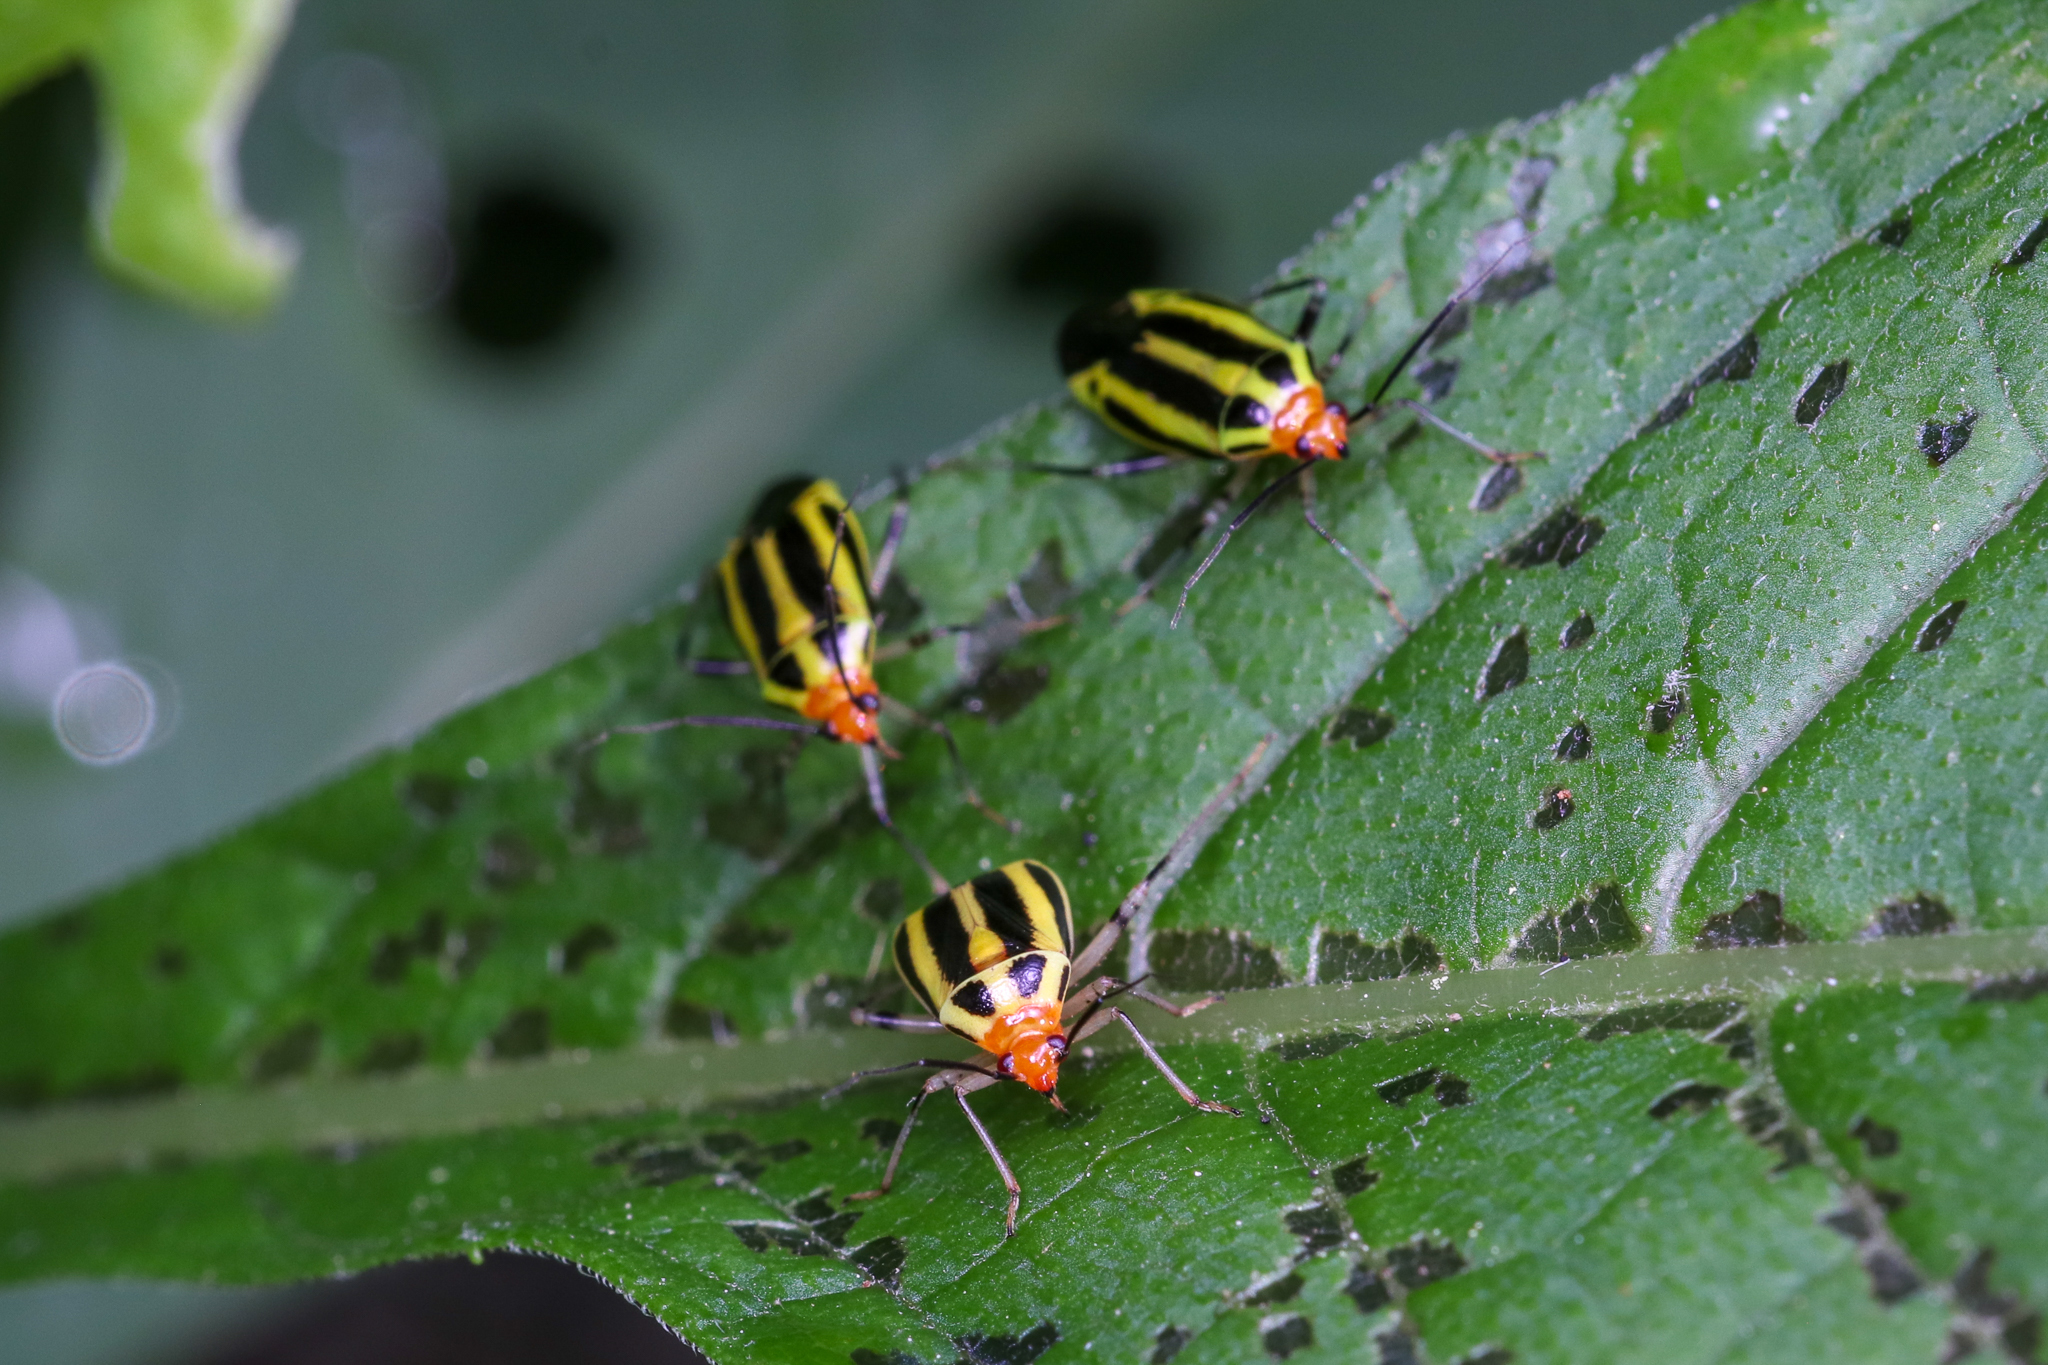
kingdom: Animalia
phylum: Arthropoda
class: Insecta
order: Hemiptera
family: Miridae
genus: Poecilocapsus
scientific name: Poecilocapsus lineatus
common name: Four-lined plant bug
